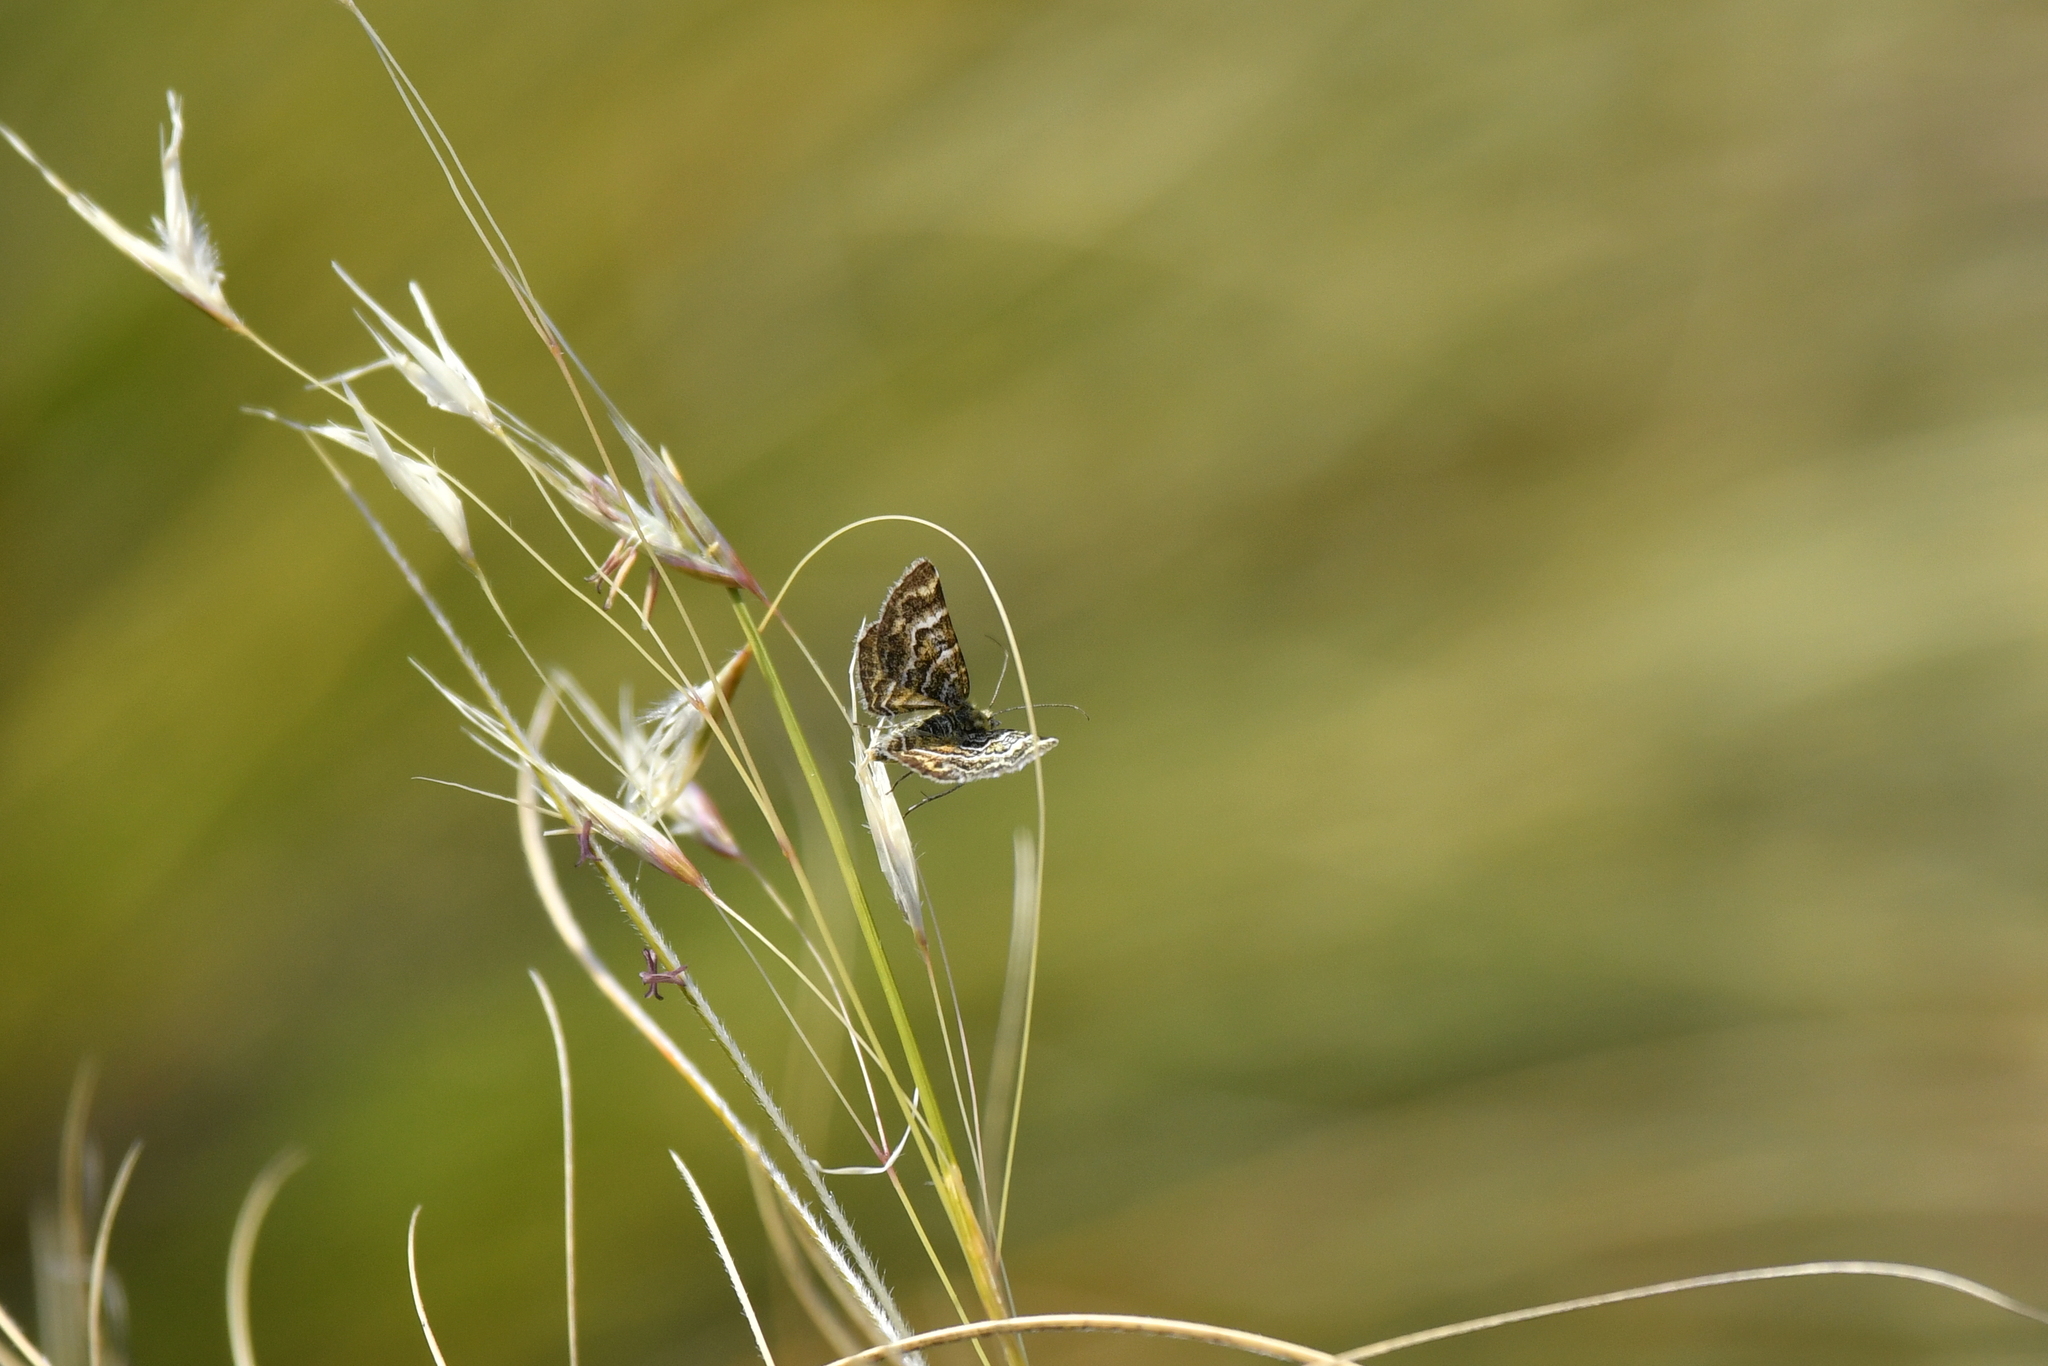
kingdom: Animalia
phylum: Arthropoda
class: Insecta
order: Lepidoptera
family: Geometridae
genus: Notoreas
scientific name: Notoreas paradelpha
